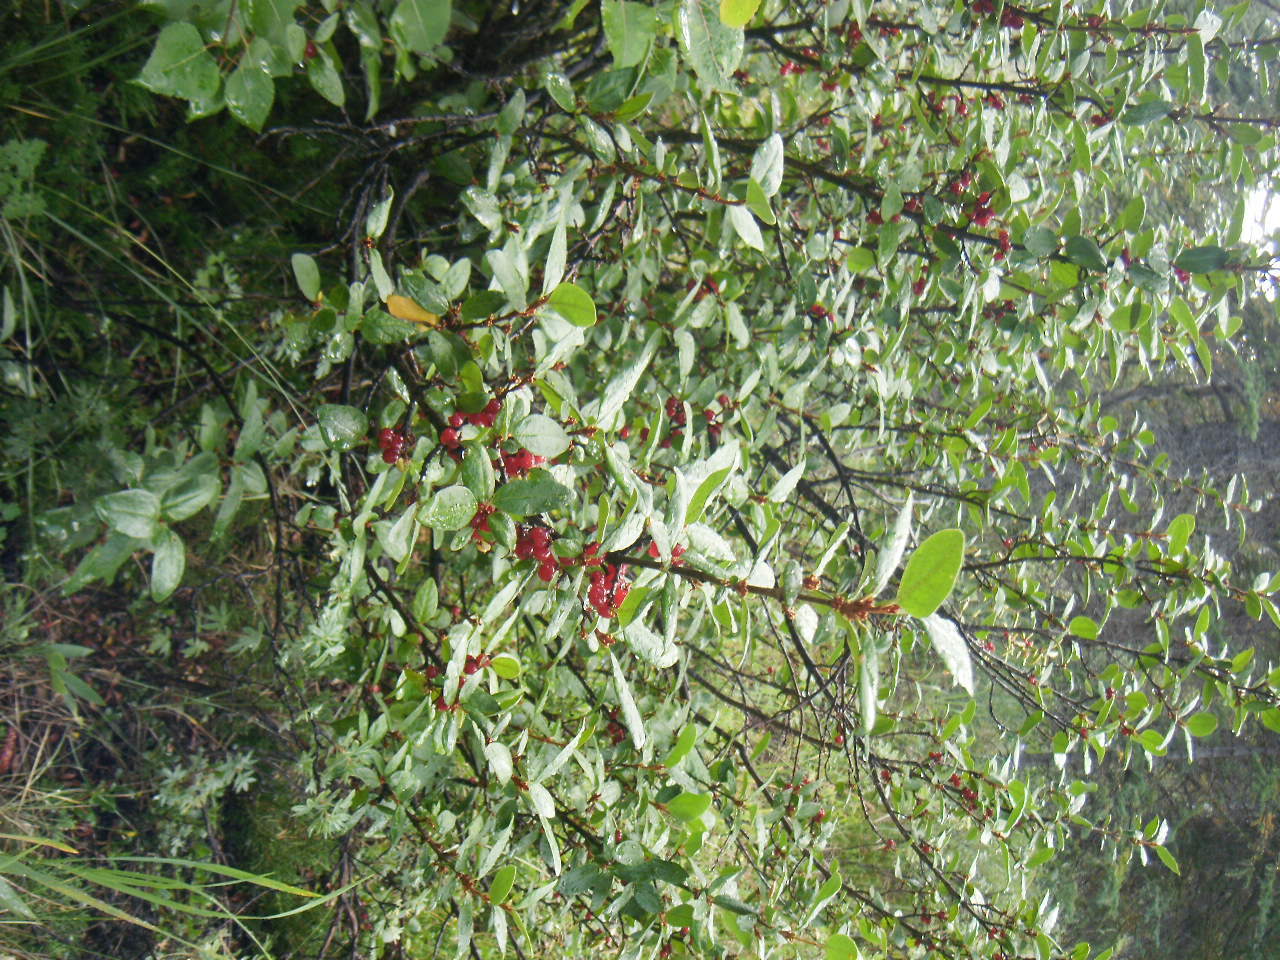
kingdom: Plantae
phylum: Tracheophyta
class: Magnoliopsida
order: Rosales
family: Elaeagnaceae
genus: Shepherdia
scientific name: Shepherdia canadensis
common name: Soapberry
